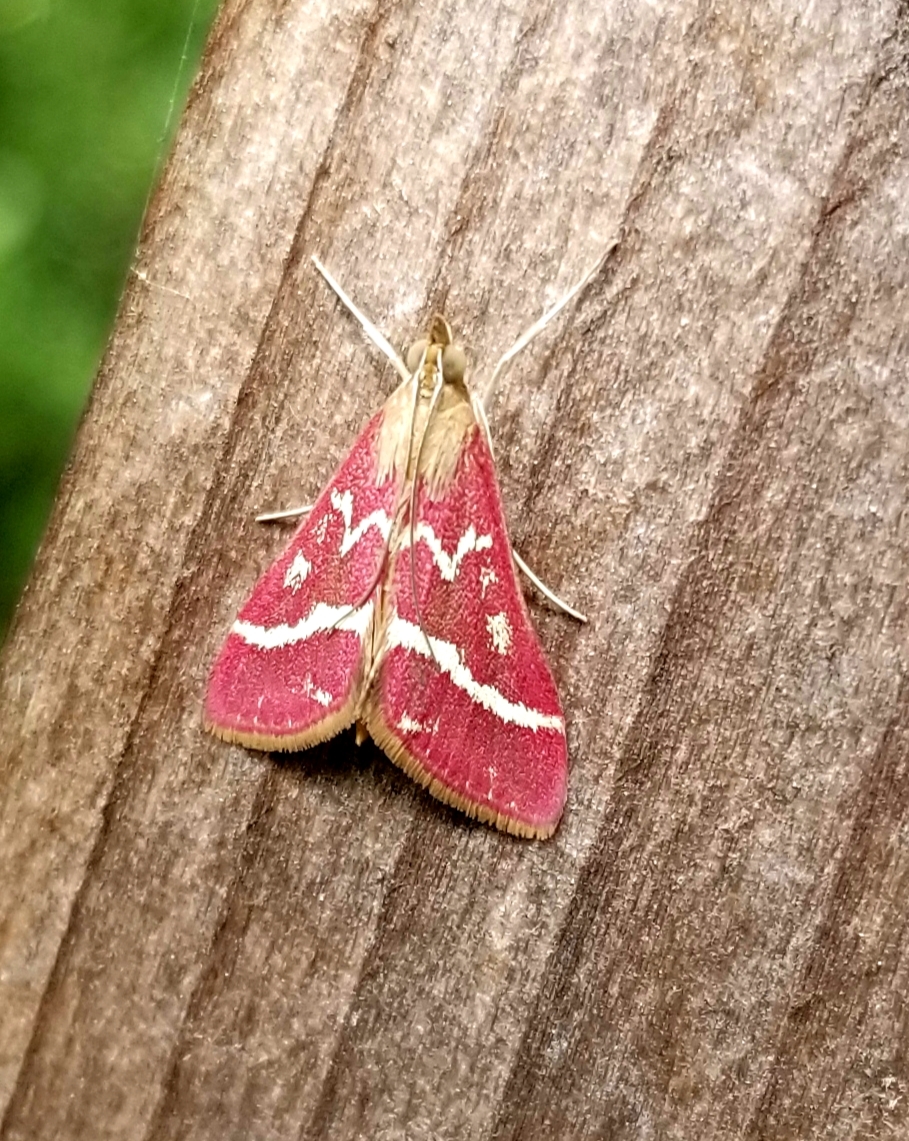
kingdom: Animalia
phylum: Arthropoda
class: Insecta
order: Lepidoptera
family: Crambidae
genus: Pyrausta
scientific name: Pyrausta volupialis
